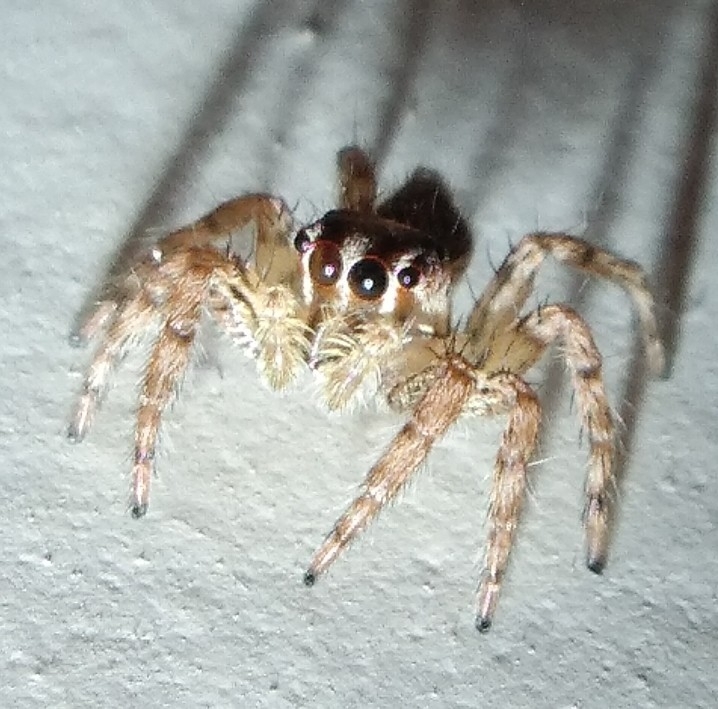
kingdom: Animalia
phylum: Arthropoda
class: Arachnida
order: Araneae
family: Salticidae
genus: Plexippus
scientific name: Plexippus paykulli
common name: Pantropical jumper
